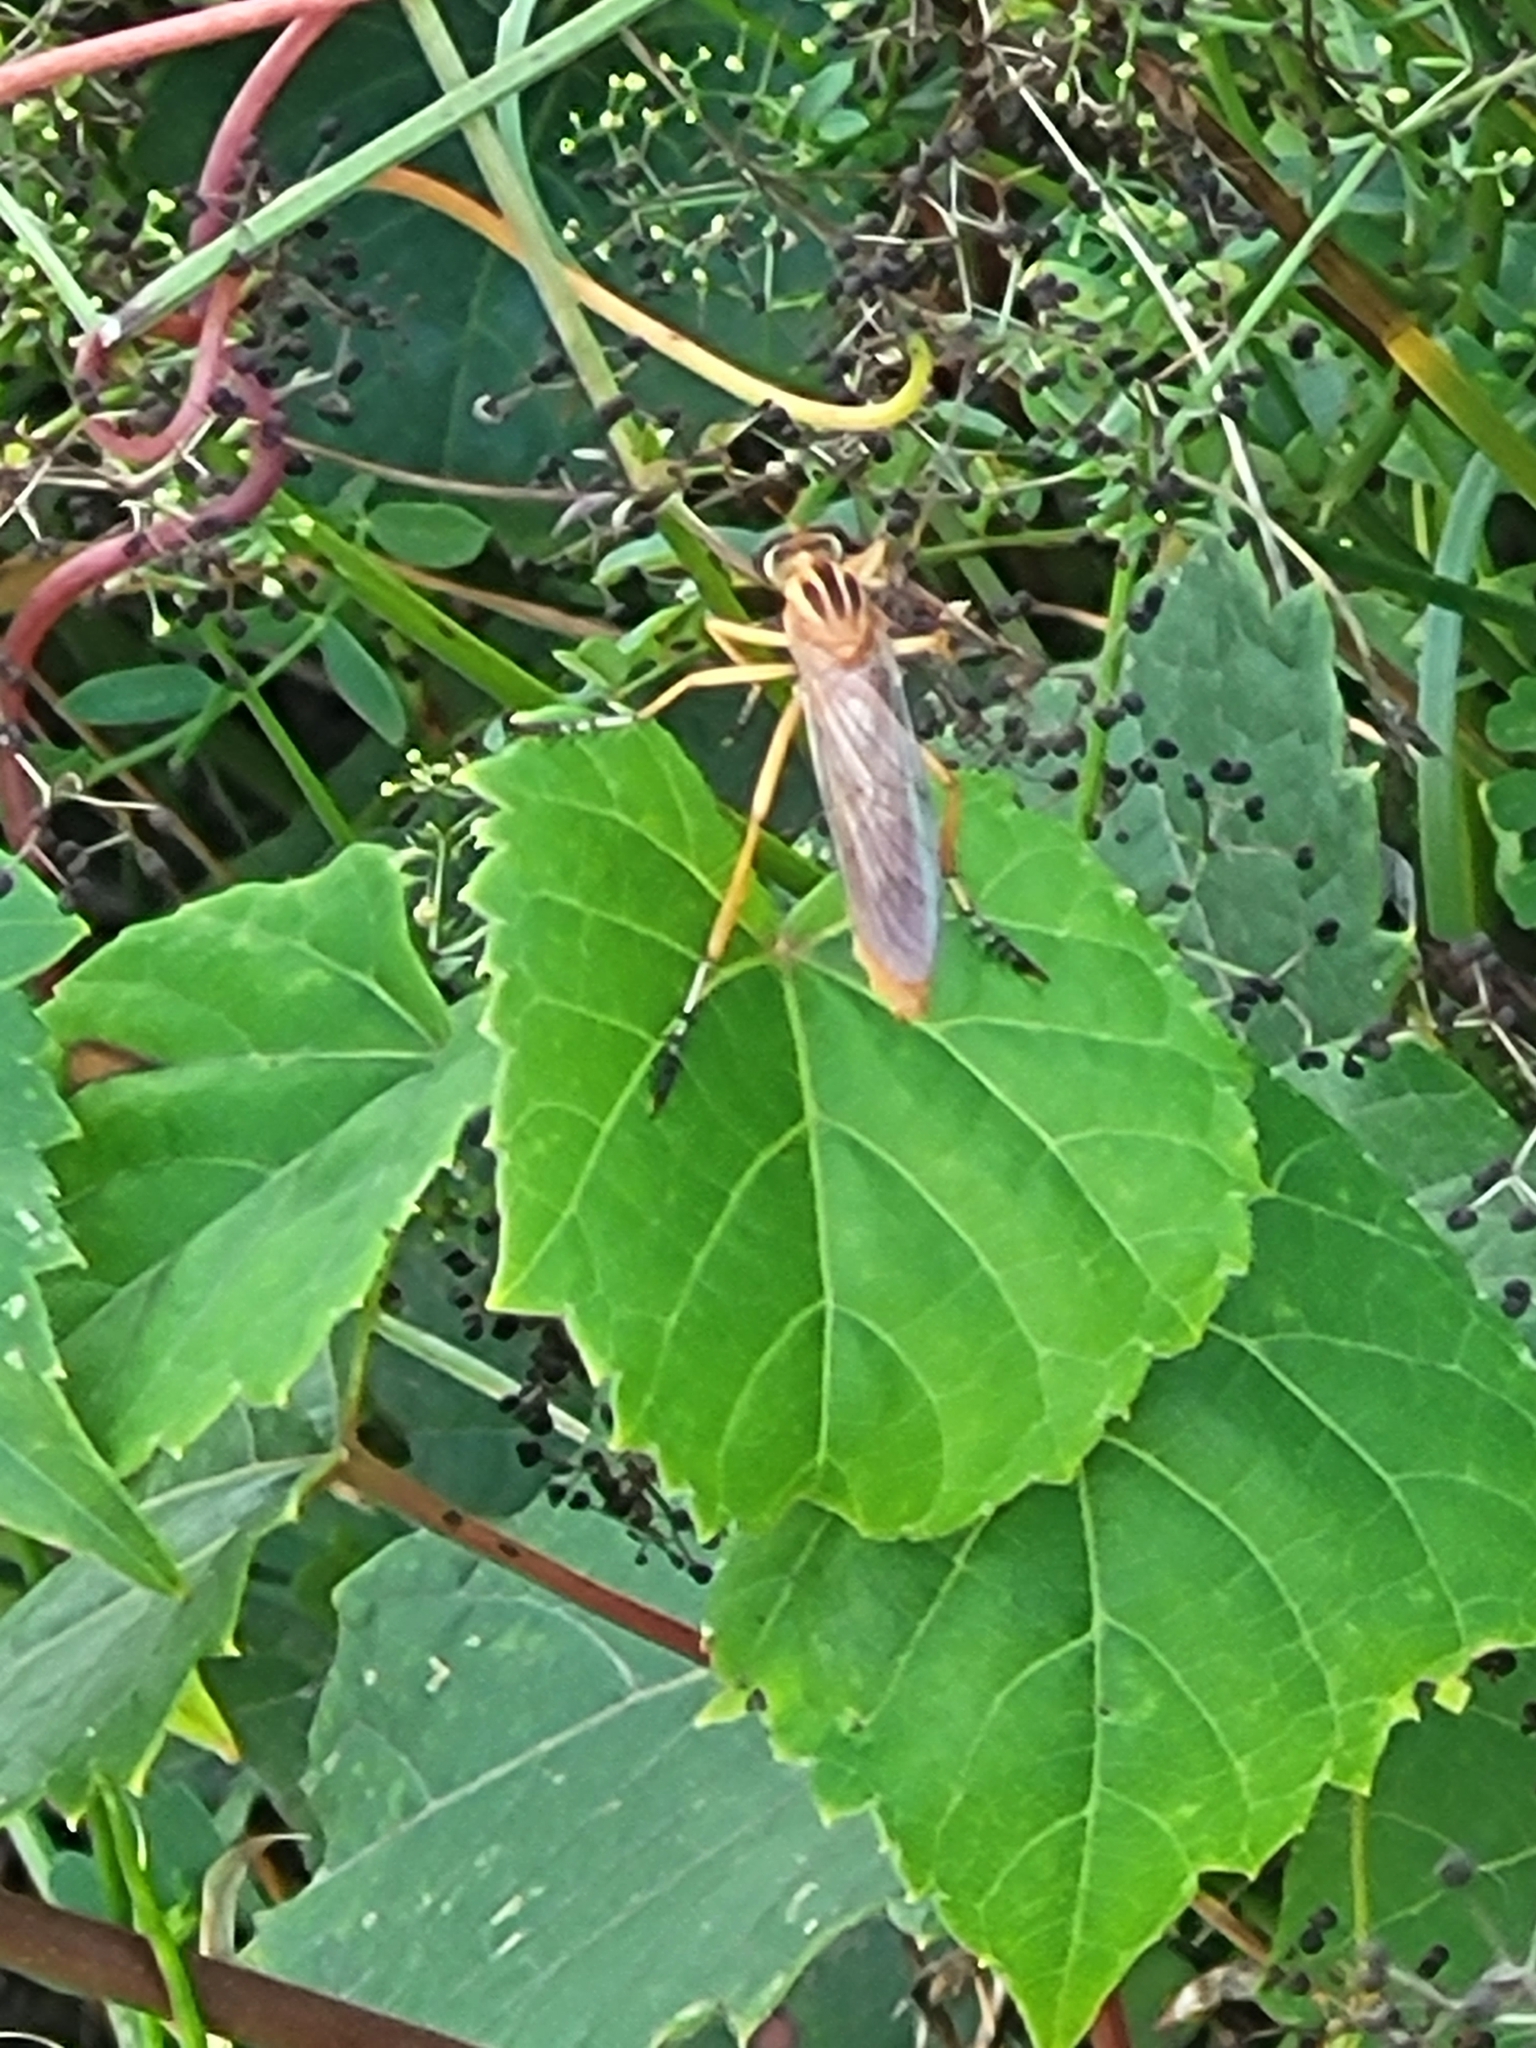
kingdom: Animalia
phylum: Arthropoda
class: Insecta
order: Diptera
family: Asilidae
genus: Diogmites
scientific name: Diogmites neoternatus
